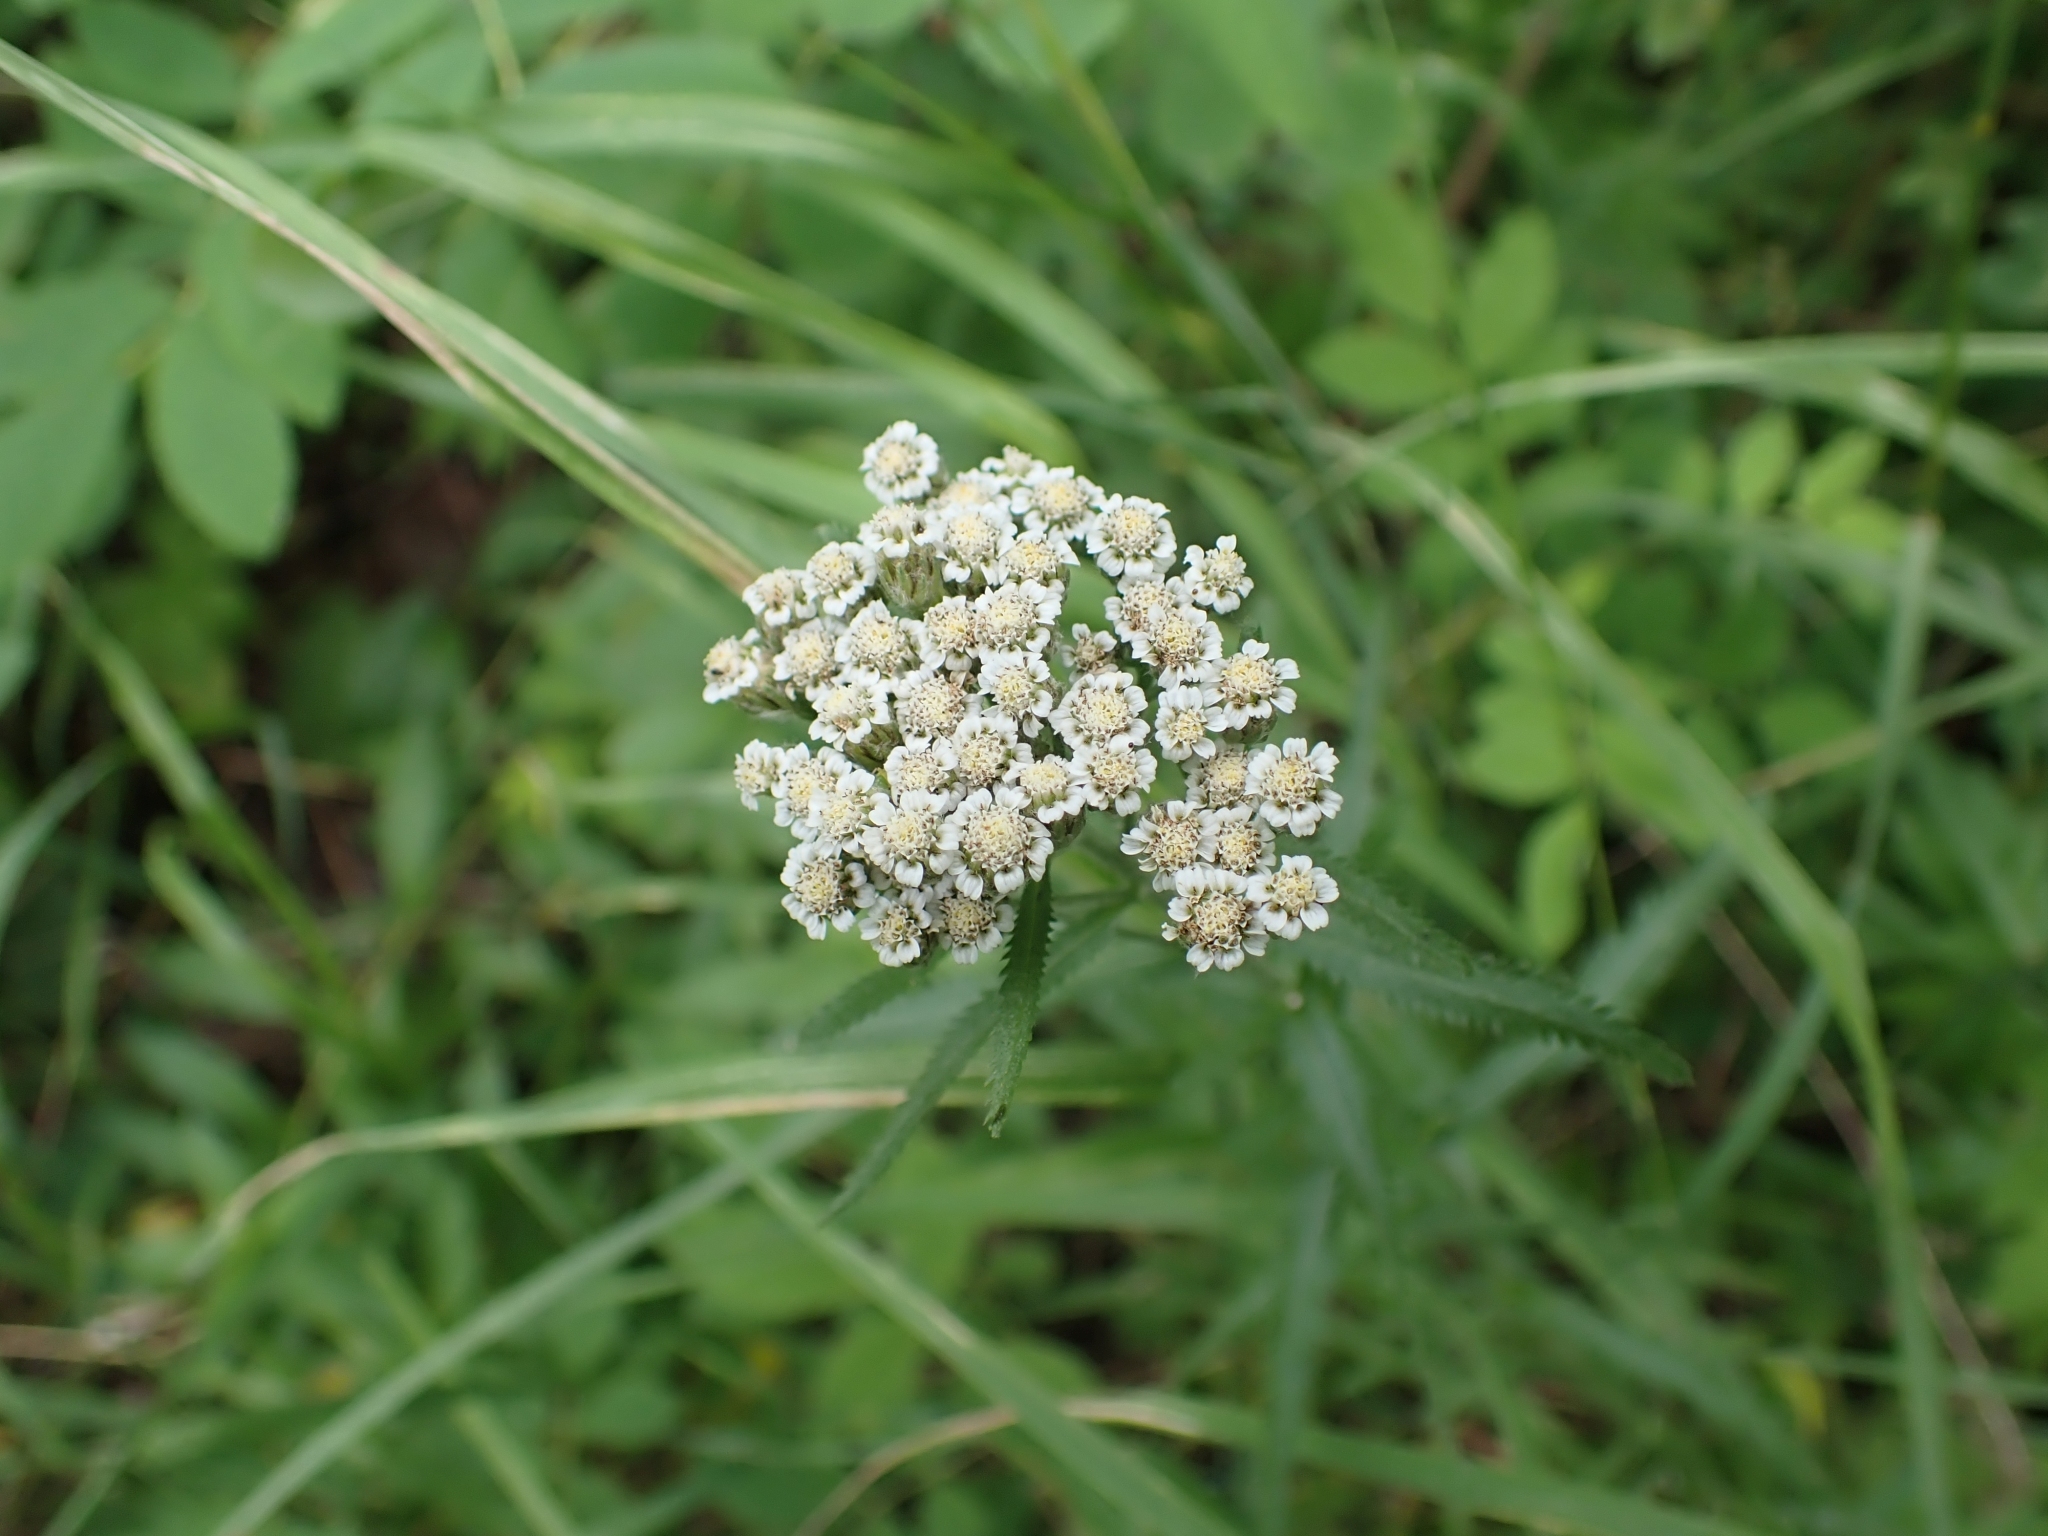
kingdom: Plantae
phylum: Tracheophyta
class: Magnoliopsida
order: Asterales
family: Asteraceae
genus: Achillea
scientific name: Achillea alpina
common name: Siberian yarrow
